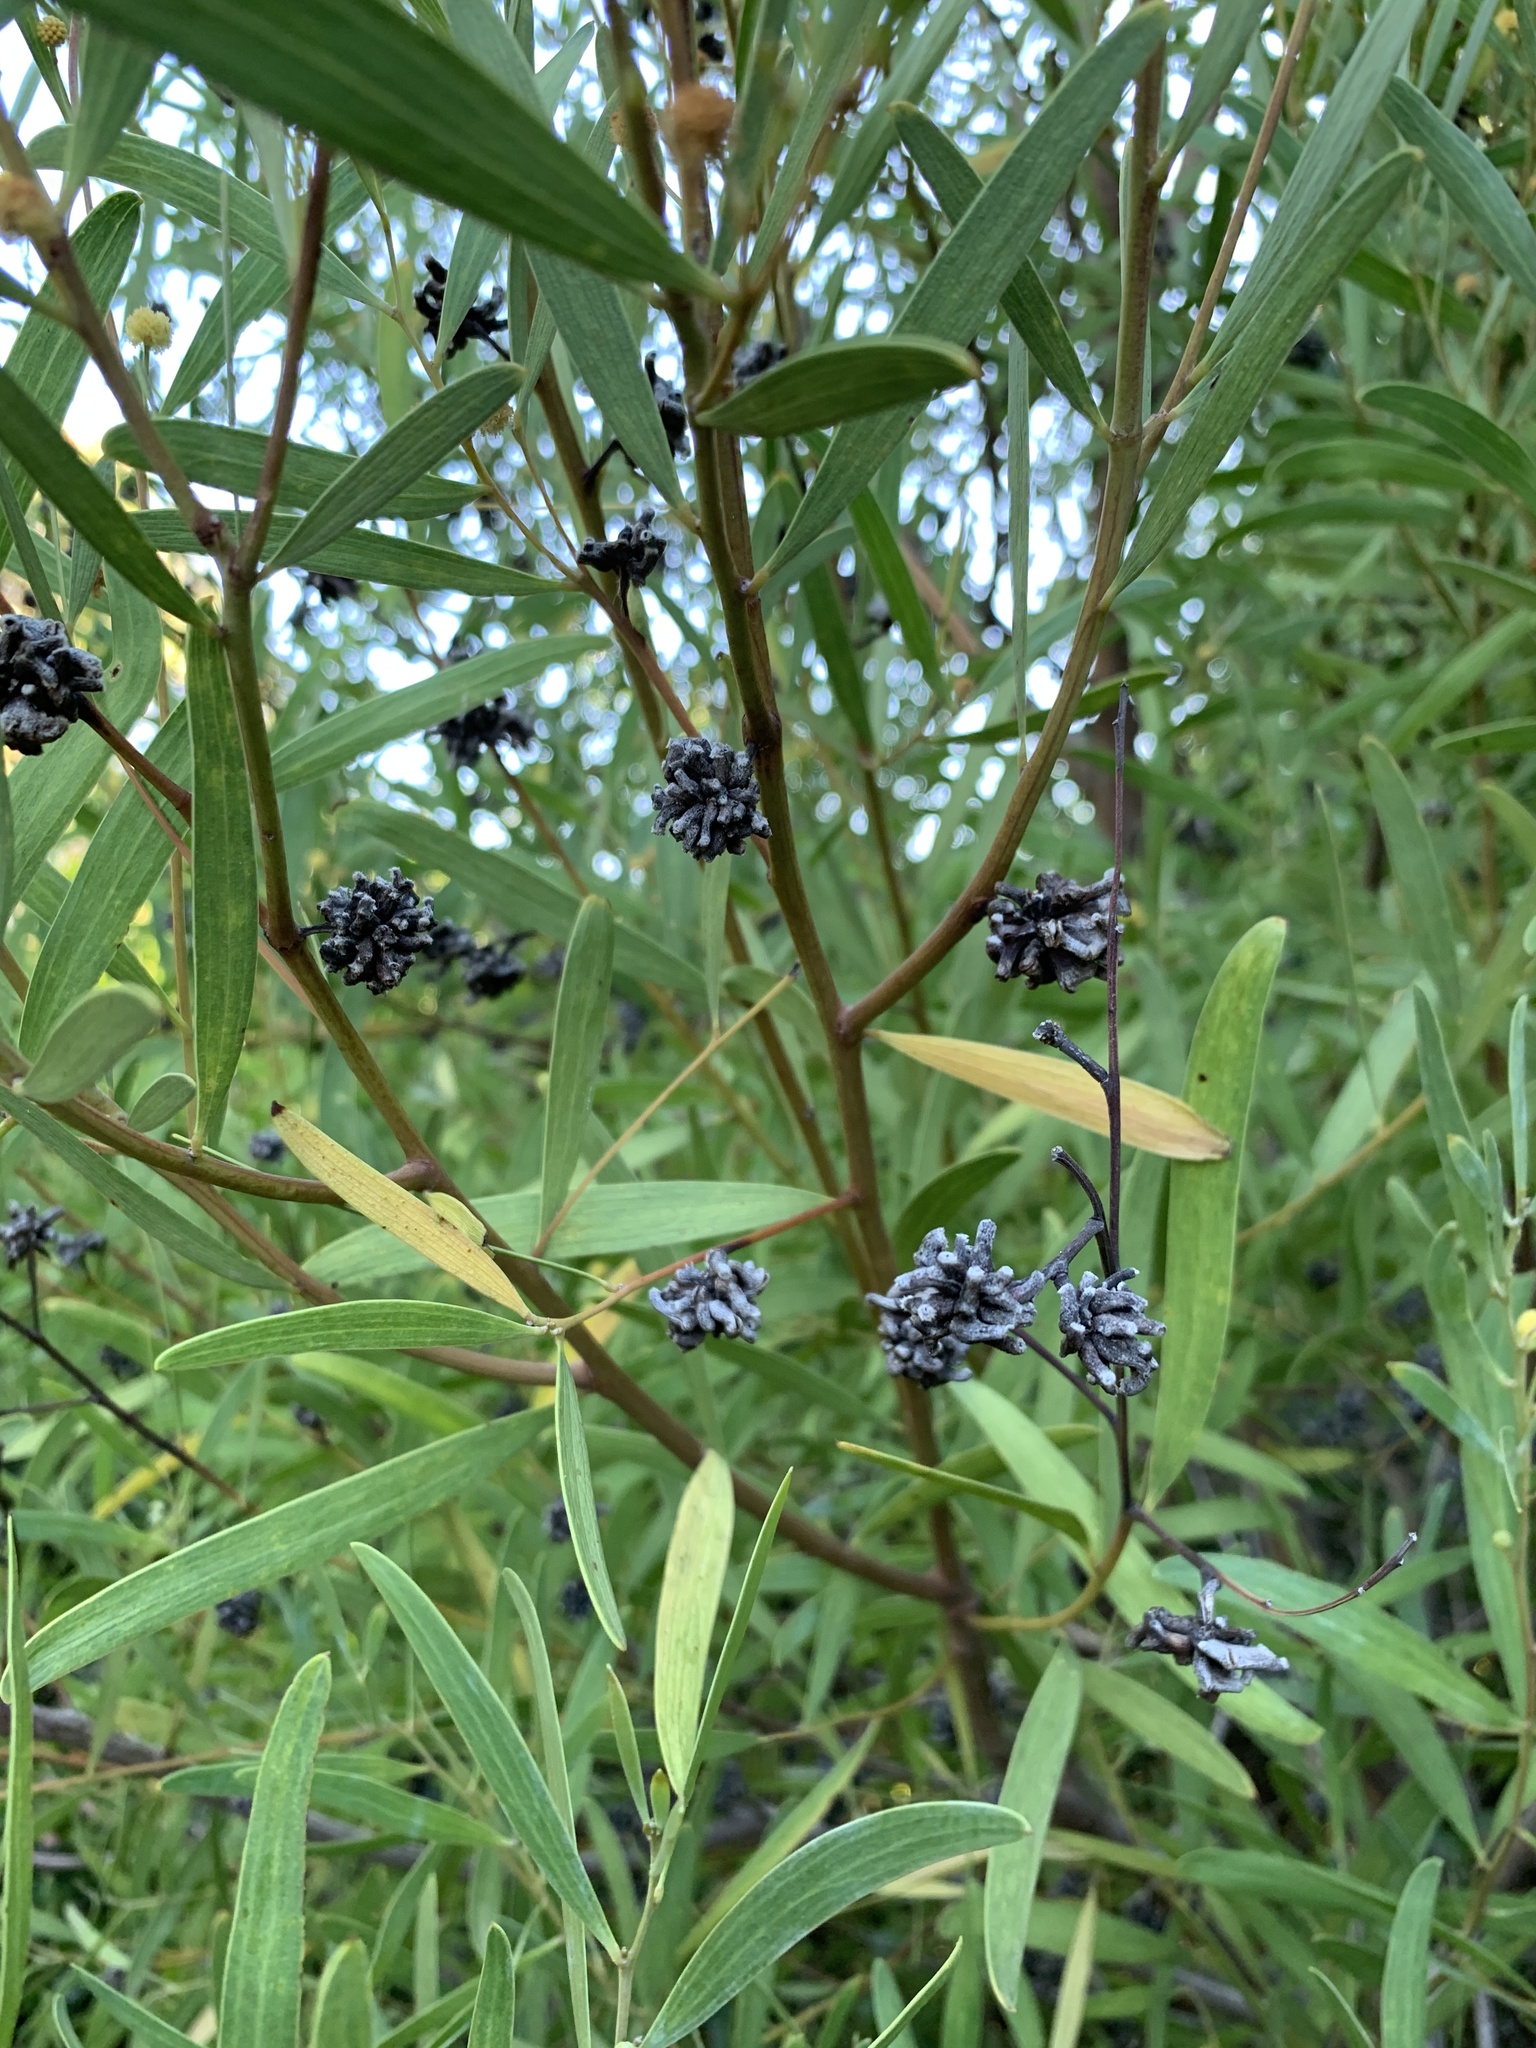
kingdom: Plantae
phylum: Tracheophyta
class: Magnoliopsida
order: Fabales
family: Fabaceae
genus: Acacia
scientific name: Acacia cyclops
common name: Coastal wattle
